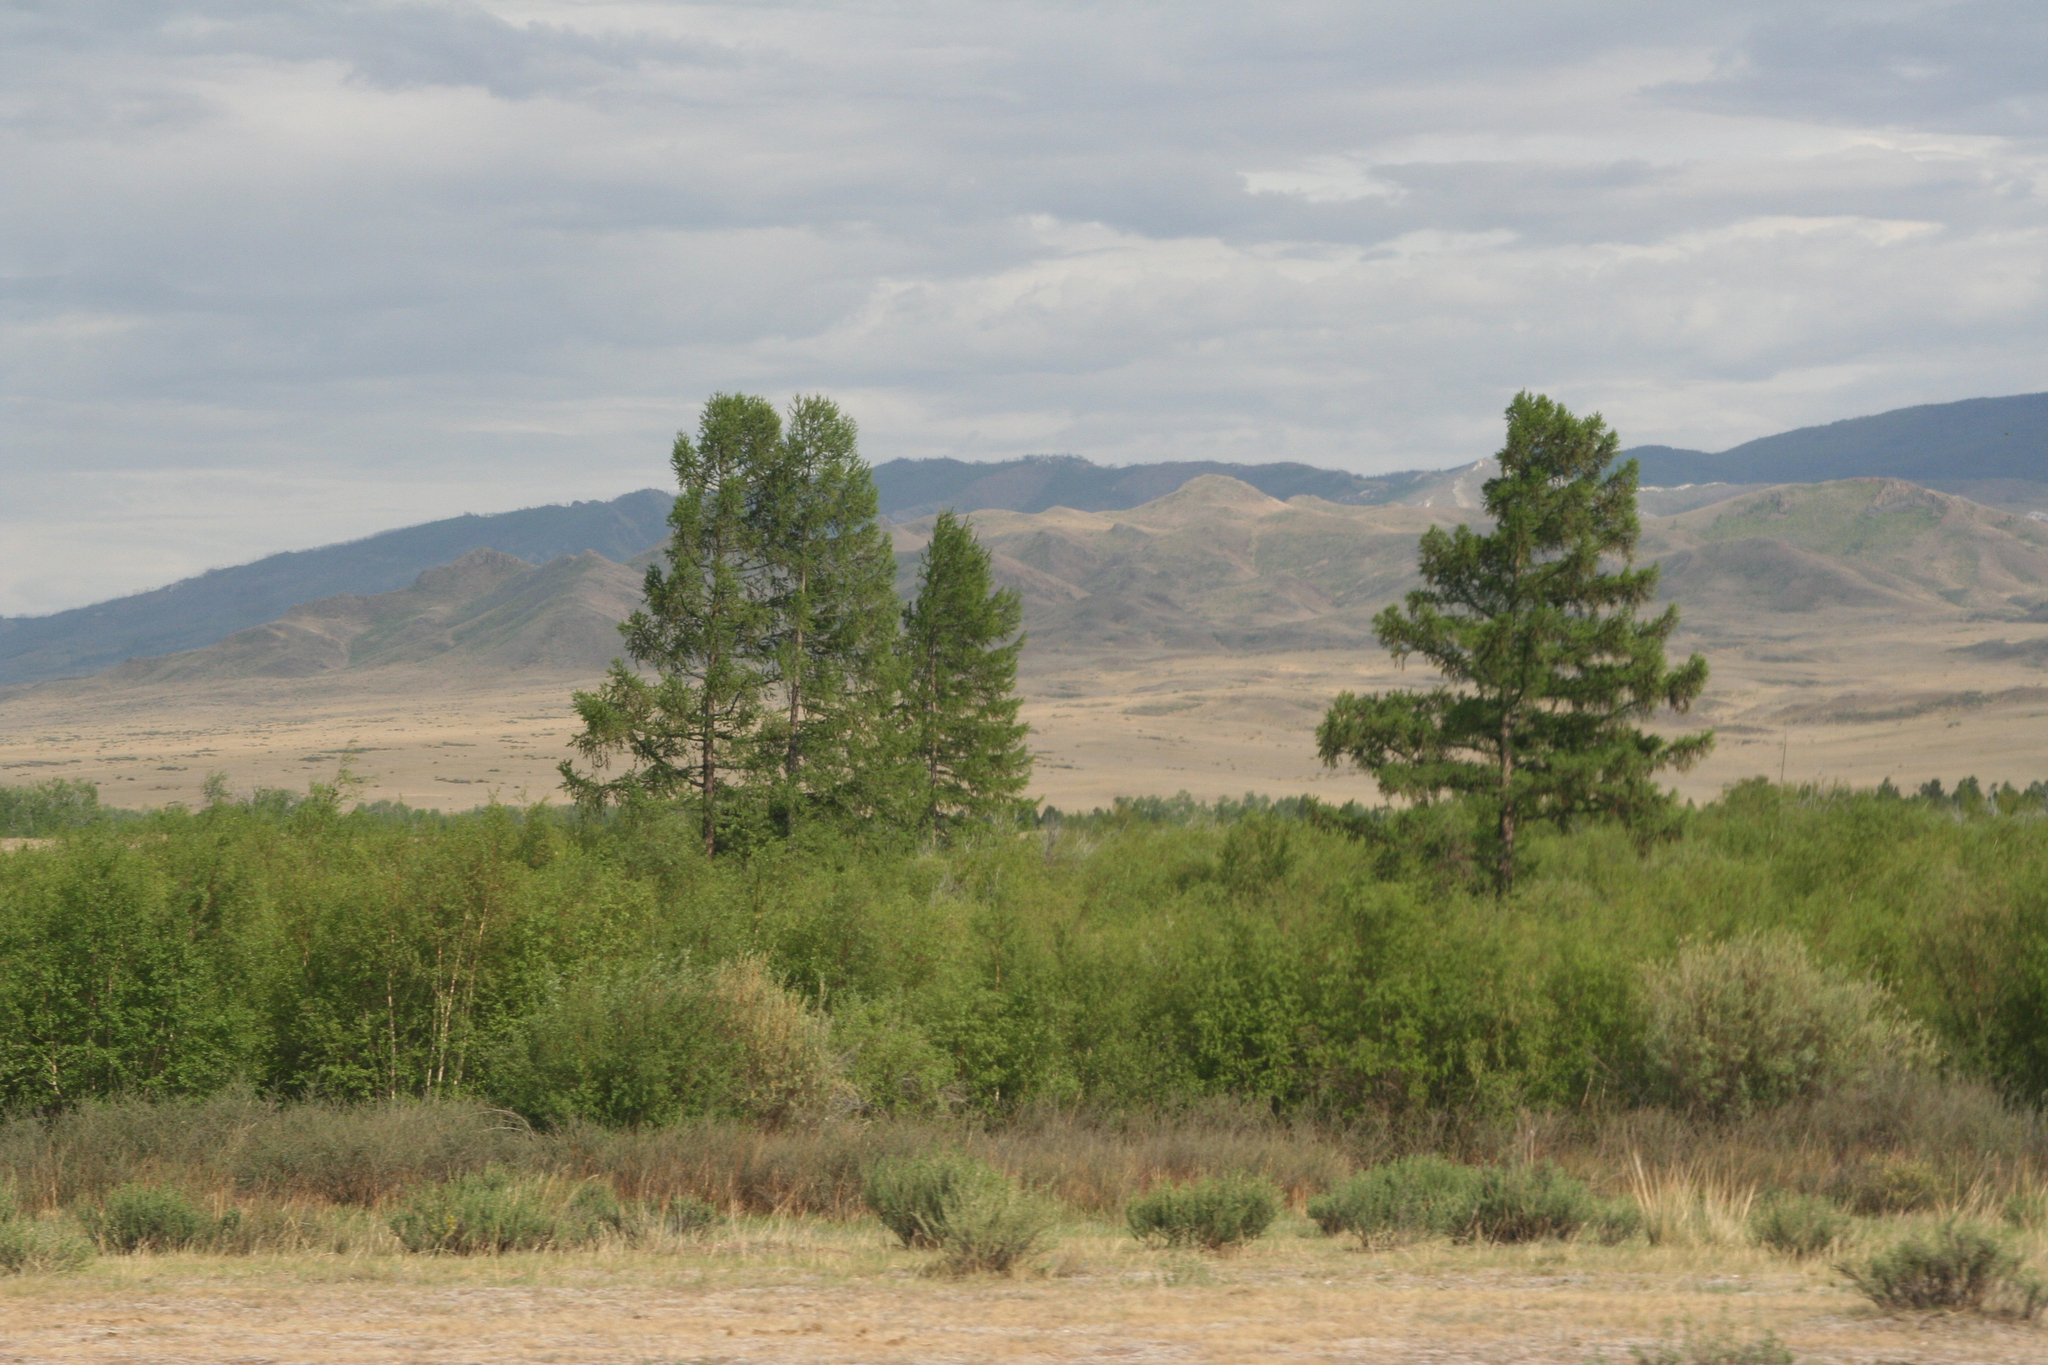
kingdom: Plantae
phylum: Tracheophyta
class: Pinopsida
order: Pinales
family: Pinaceae
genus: Larix
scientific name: Larix sibirica
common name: Siberian larch
